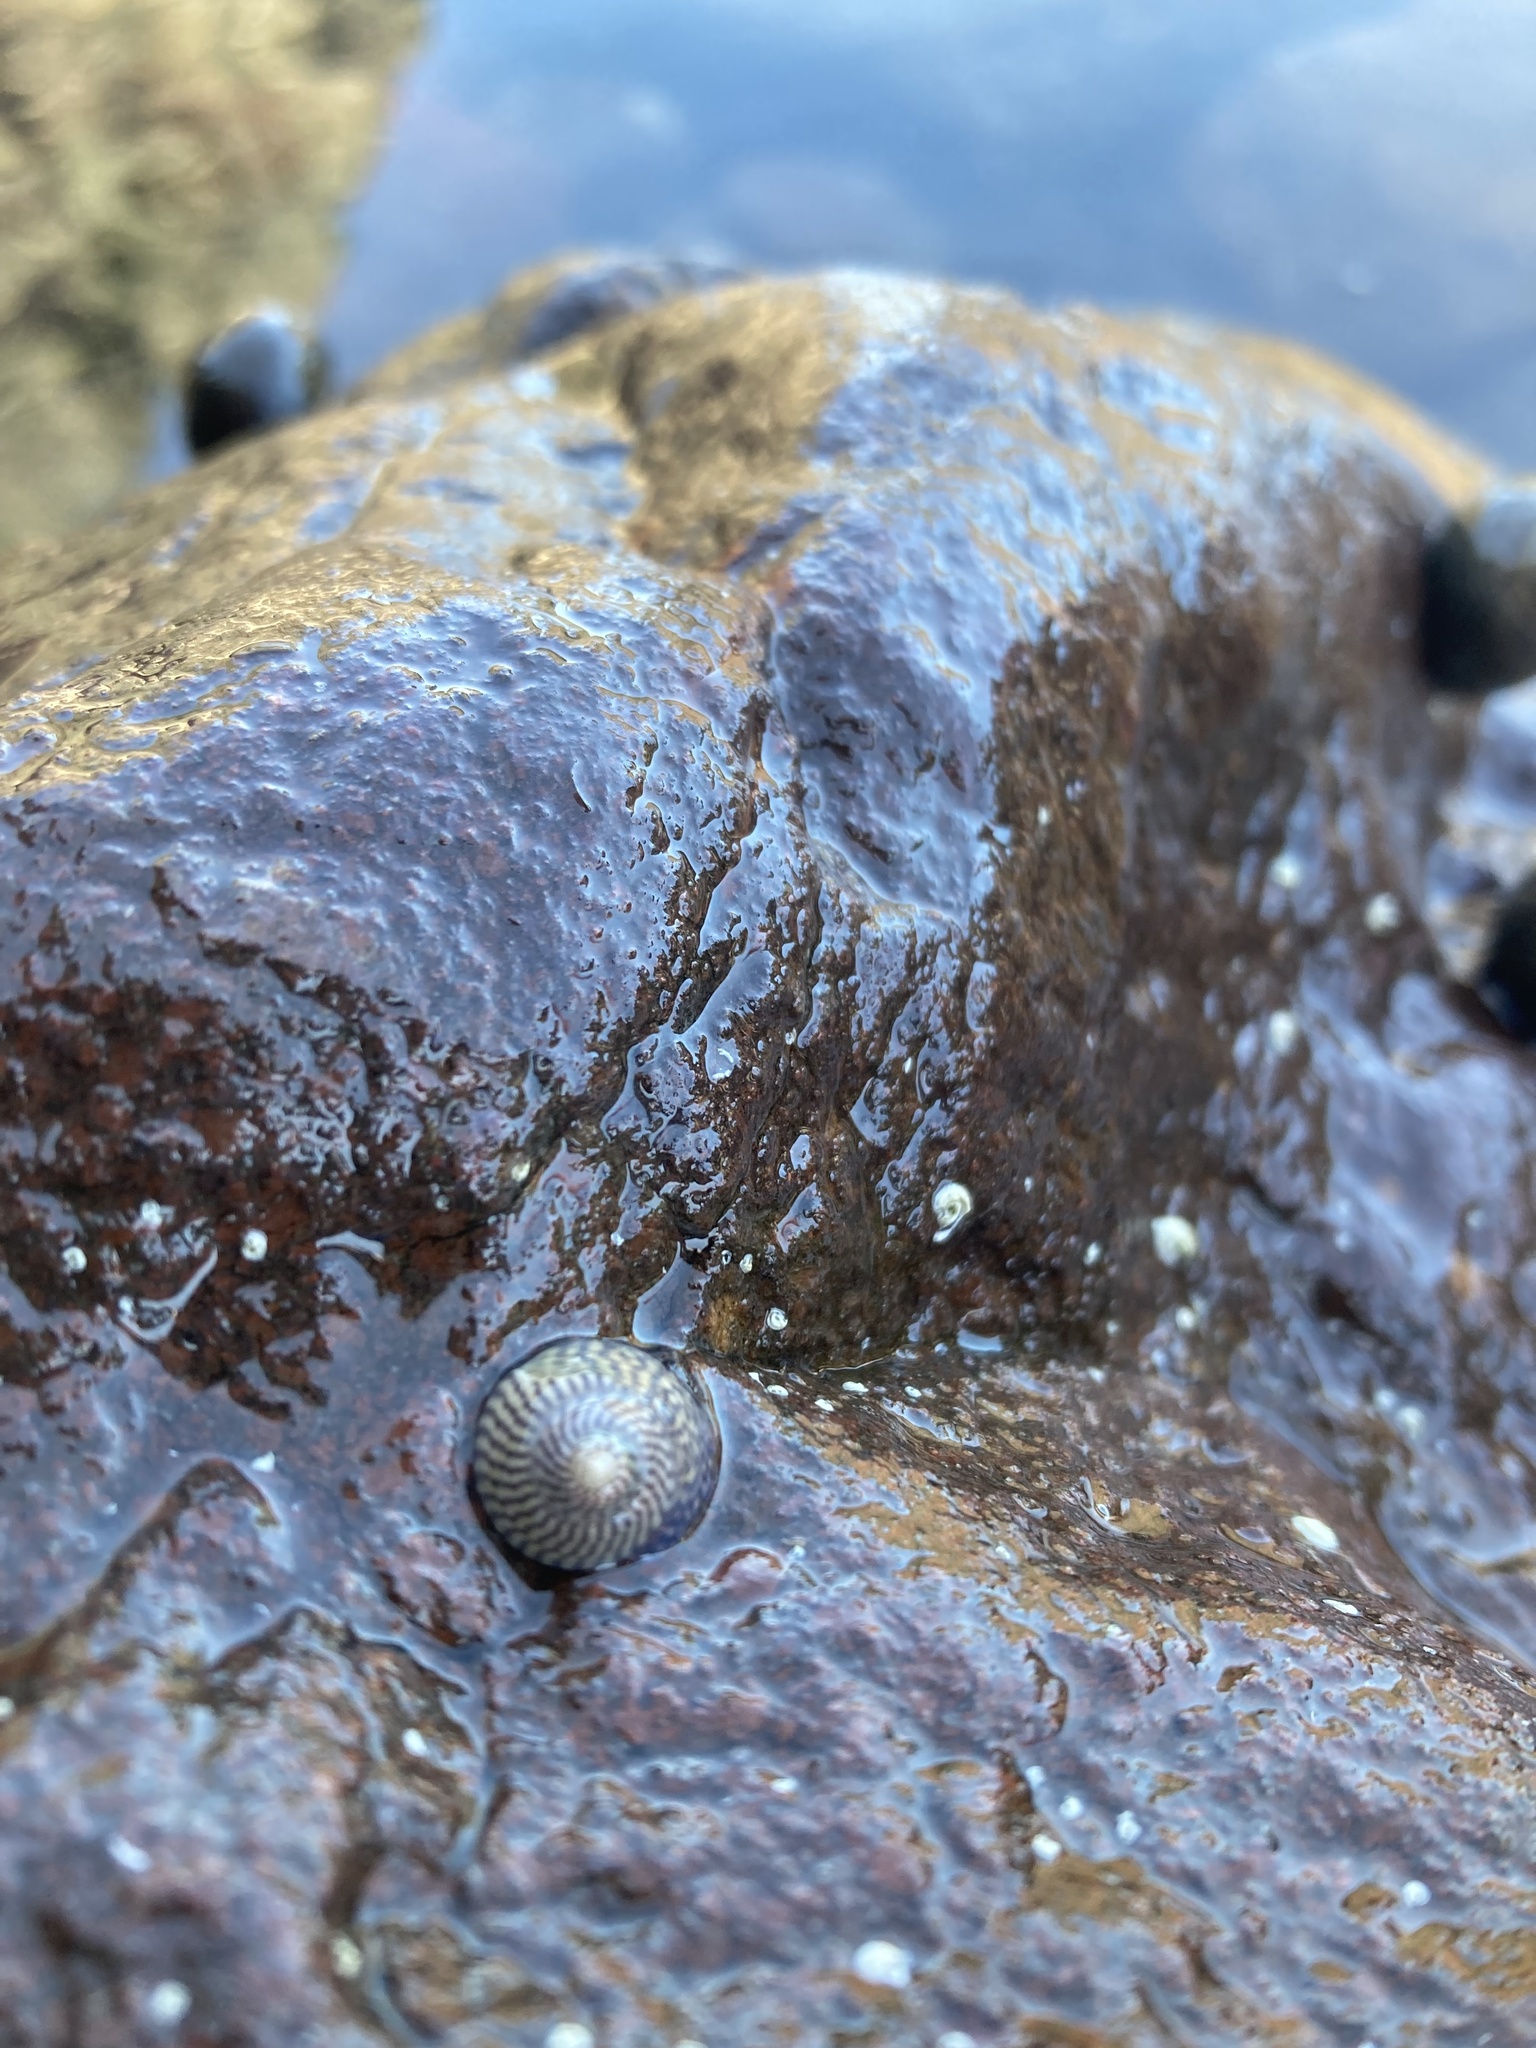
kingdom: Animalia
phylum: Mollusca
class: Gastropoda
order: Trochida
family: Trochidae
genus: Steromphala
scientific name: Steromphala cineraria
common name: Grey top shell
